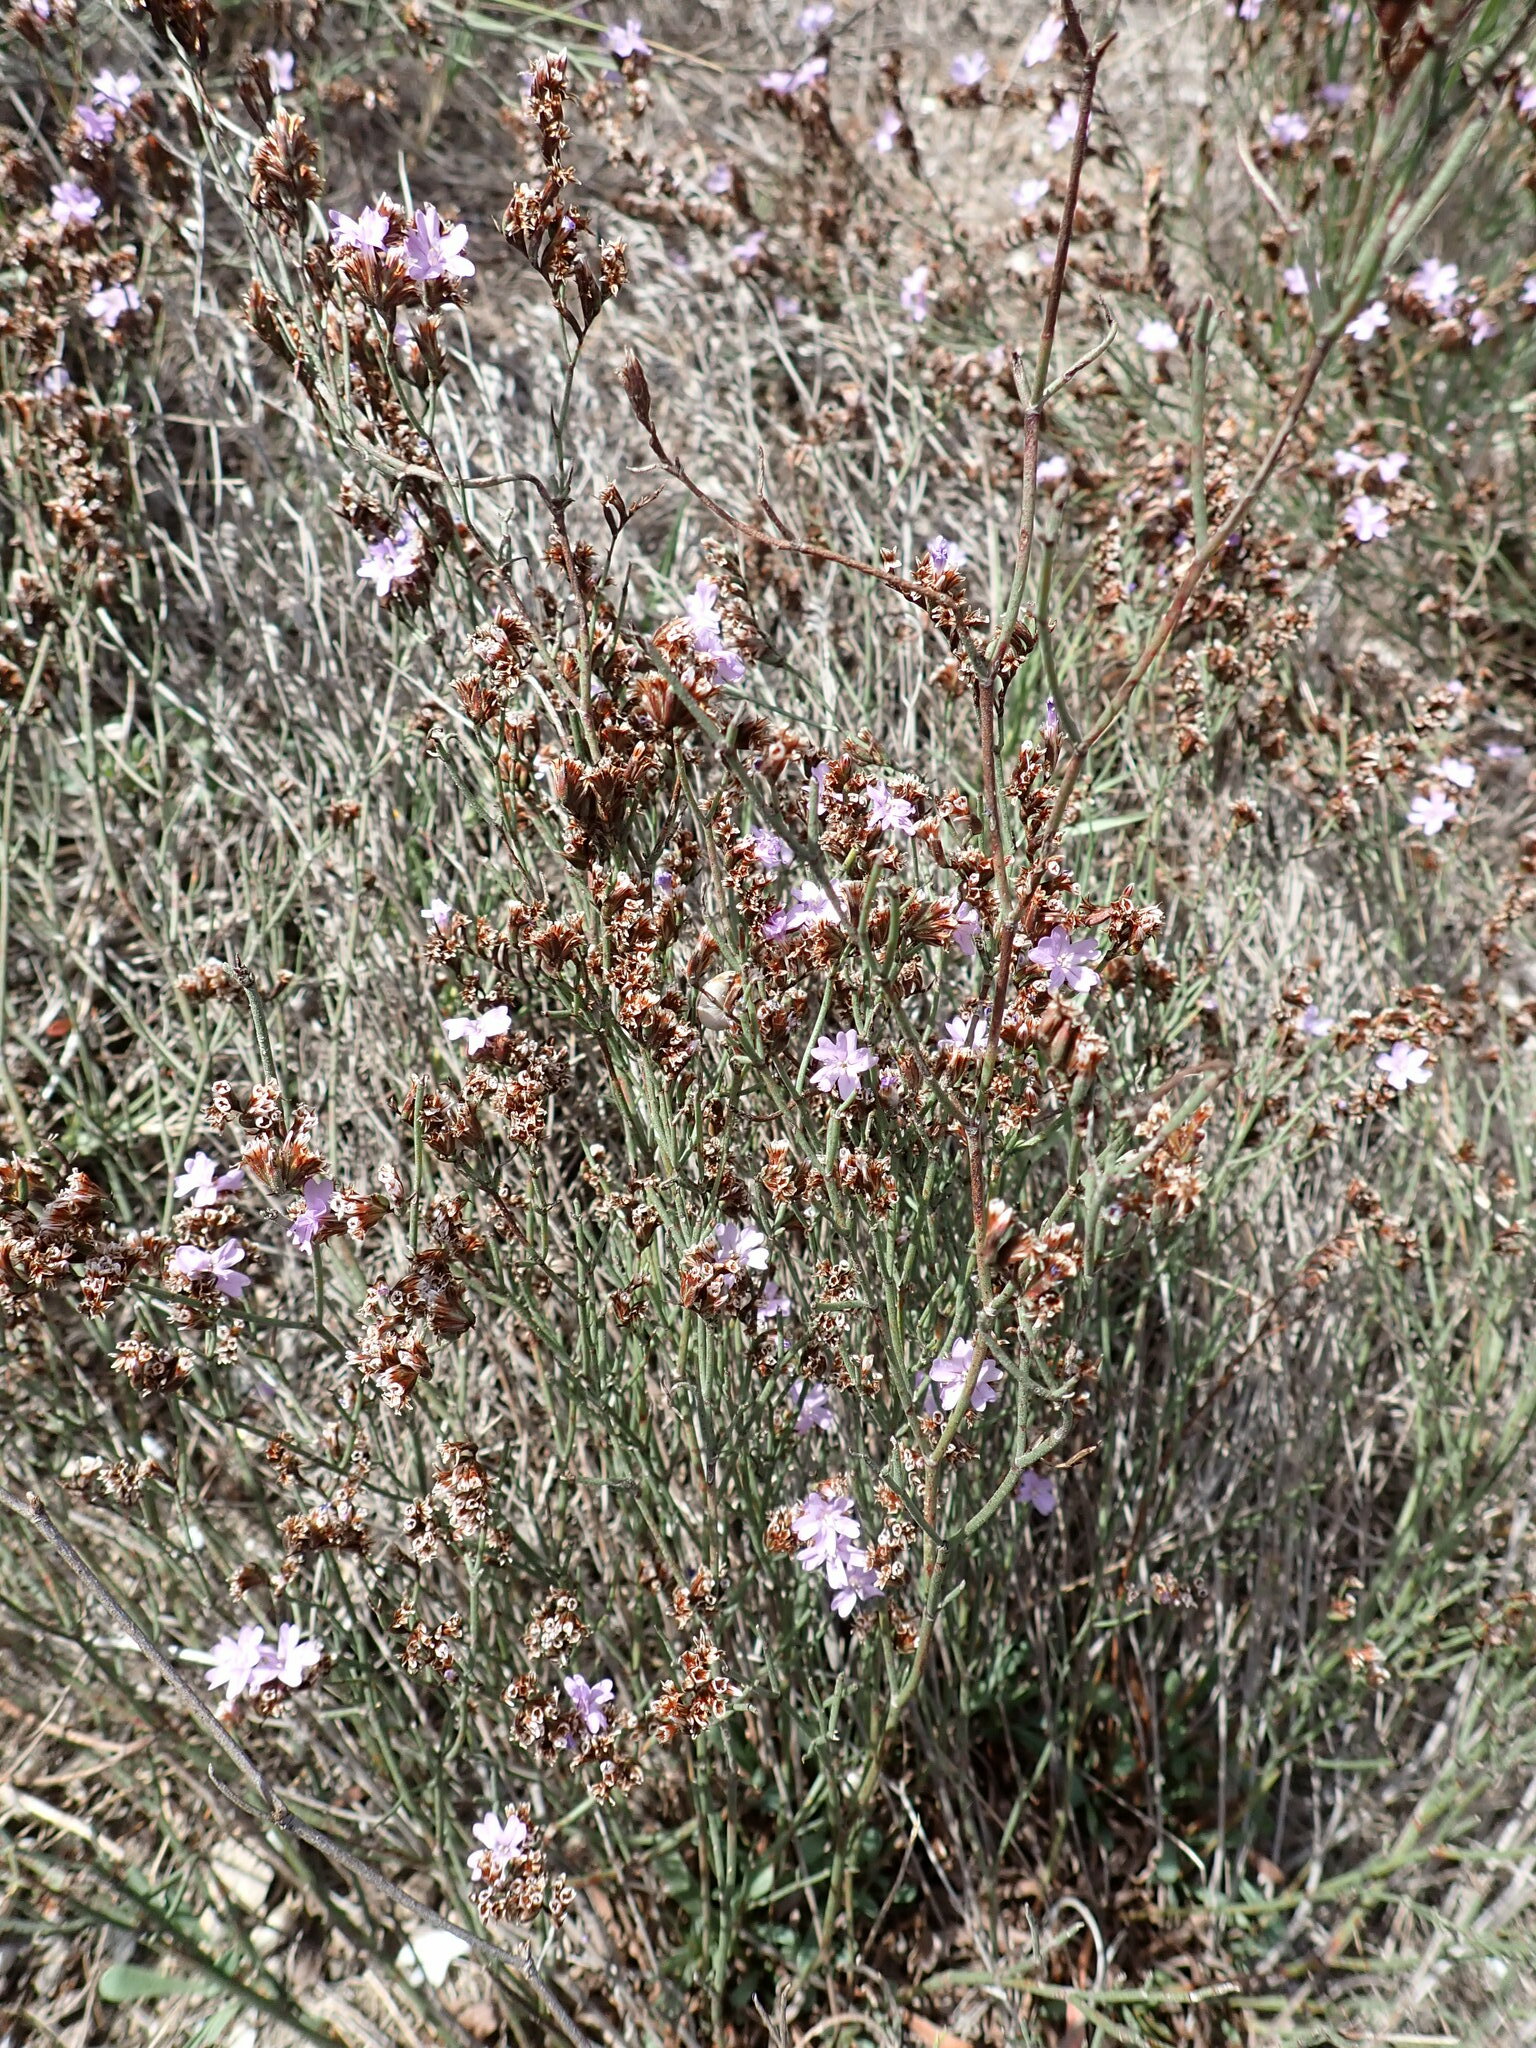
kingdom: Plantae
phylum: Tracheophyta
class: Magnoliopsida
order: Caryophyllales
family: Plumbaginaceae
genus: Limonium
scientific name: Limonium virgatum
